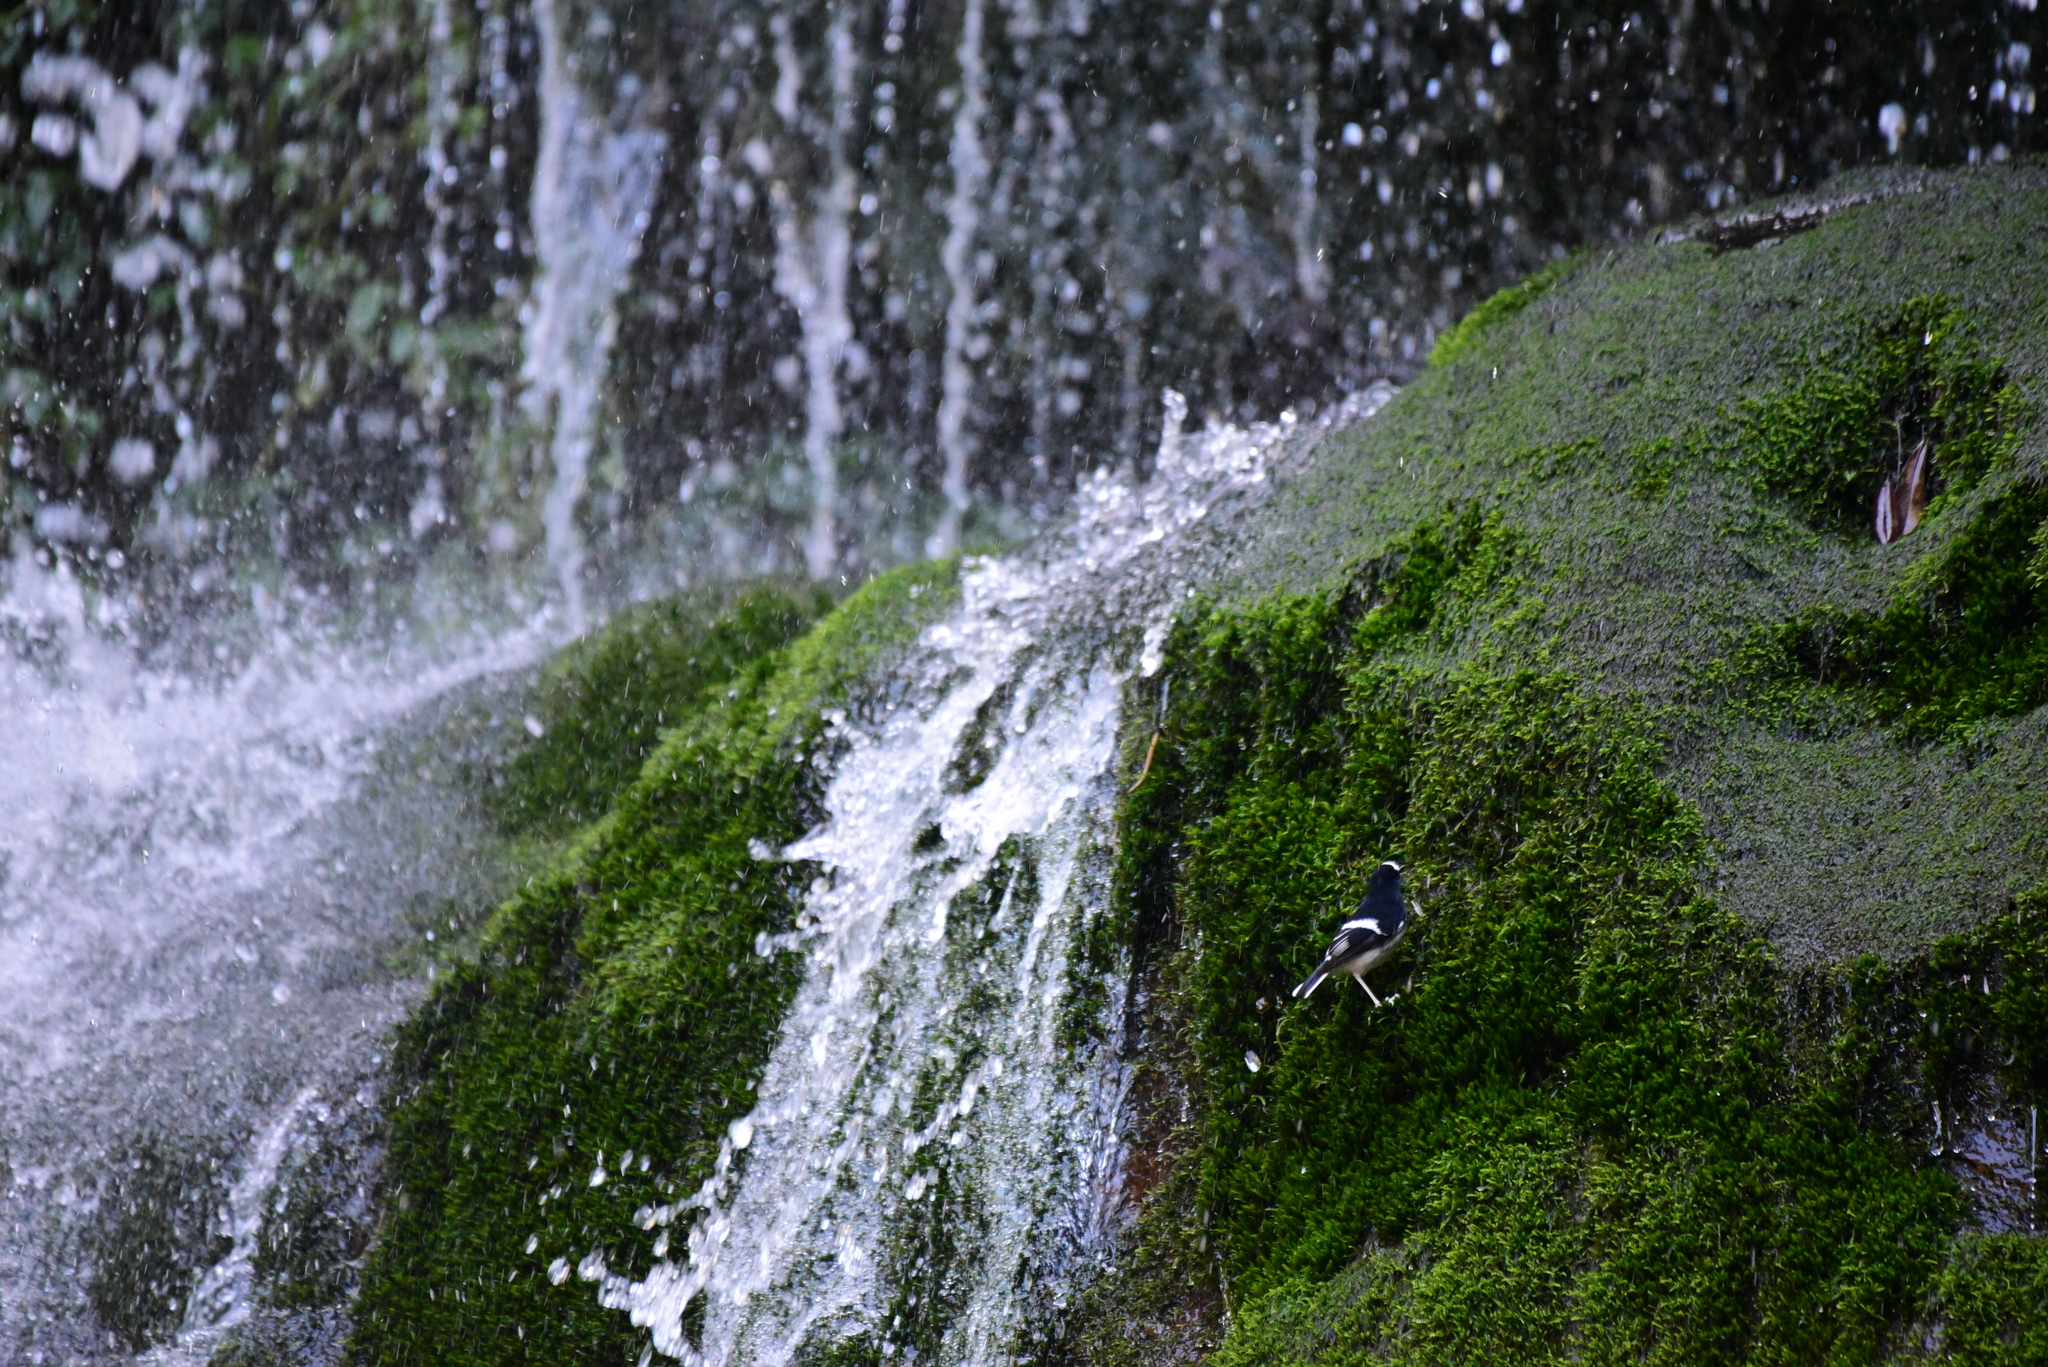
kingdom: Animalia
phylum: Chordata
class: Aves
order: Passeriformes
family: Muscicapidae
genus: Enicurus
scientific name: Enicurus scouleri
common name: Little forktail
